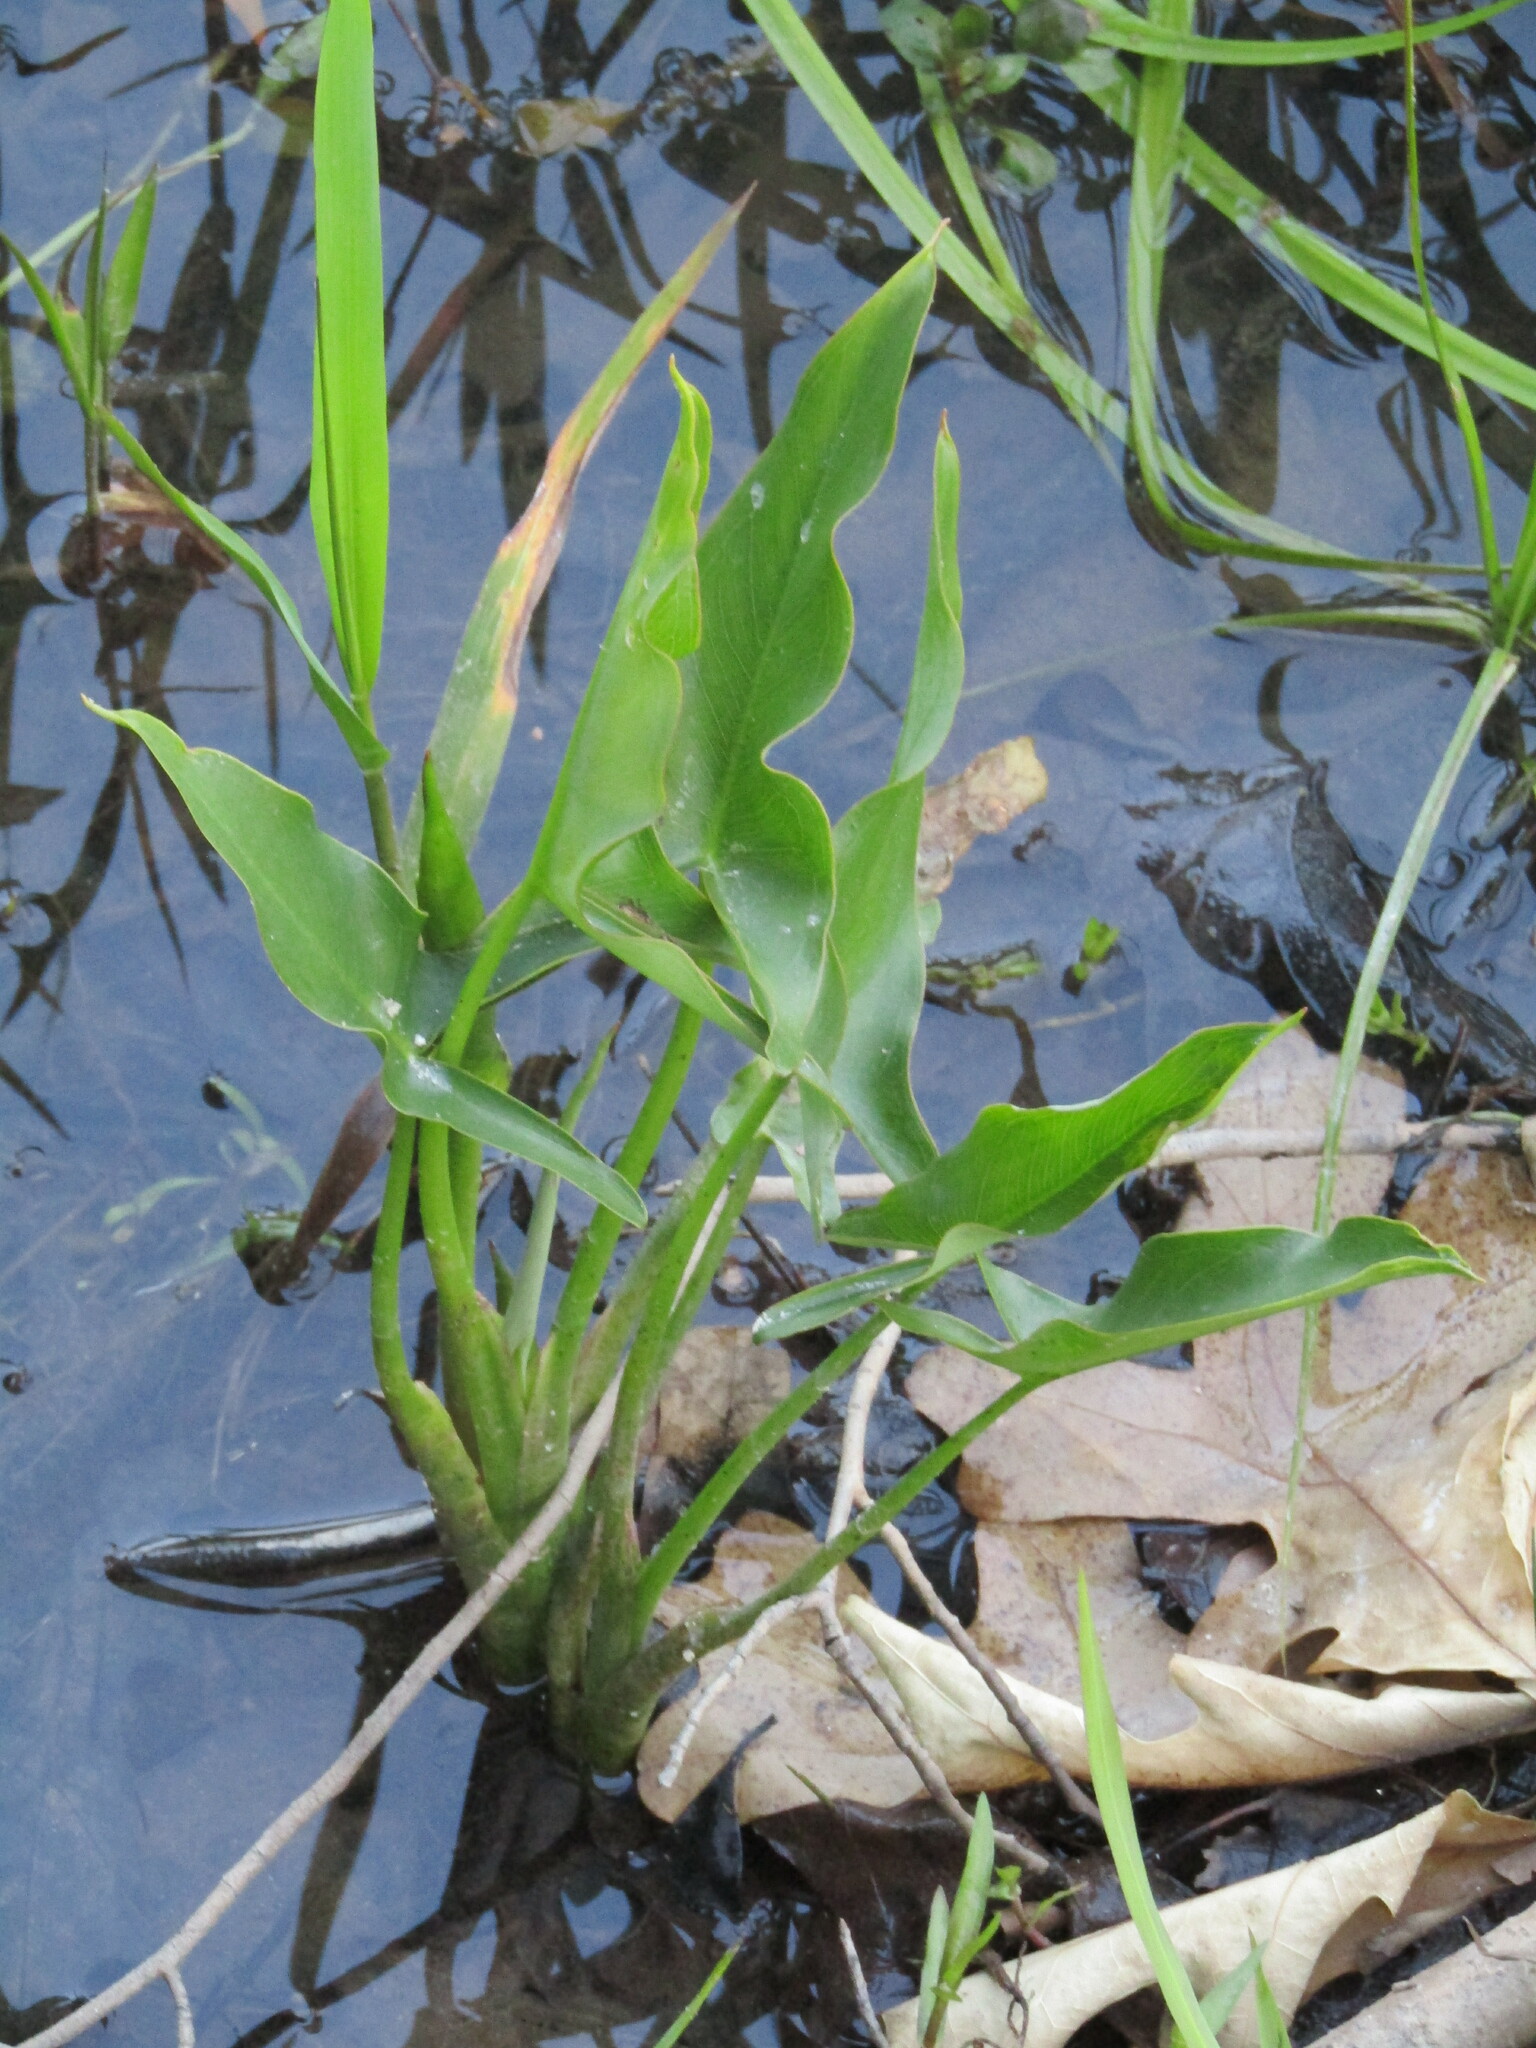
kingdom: Plantae
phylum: Tracheophyta
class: Liliopsida
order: Alismatales
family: Araceae
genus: Peltandra
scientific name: Peltandra virginica
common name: Arrow arum
